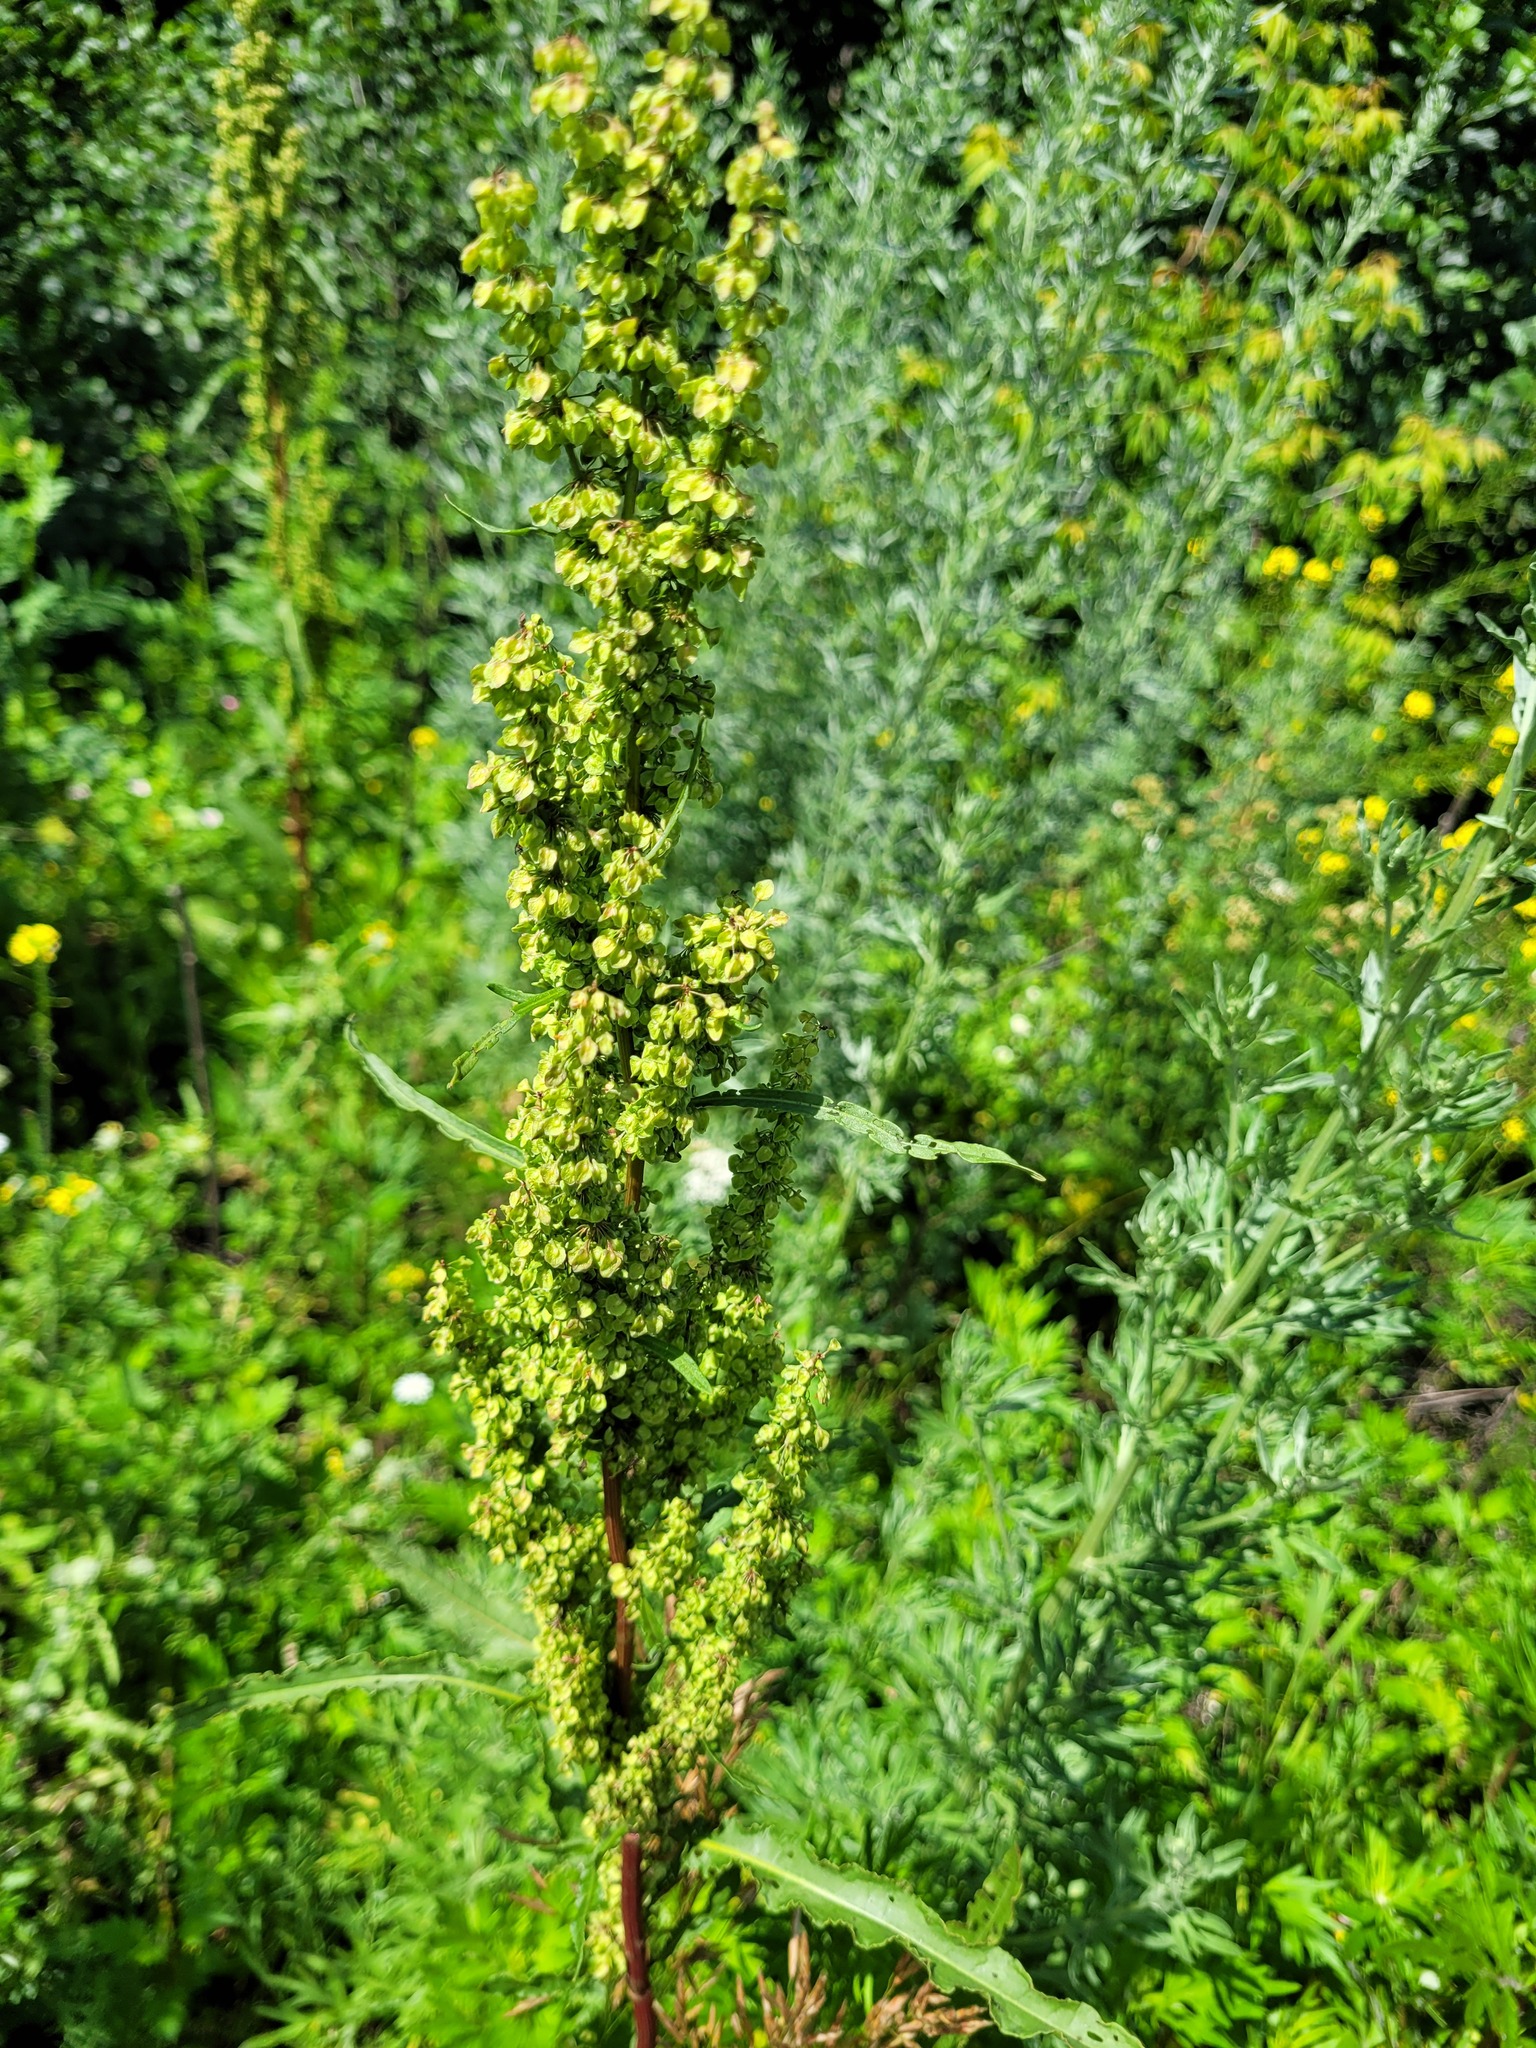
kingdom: Plantae
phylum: Tracheophyta
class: Magnoliopsida
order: Caryophyllales
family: Polygonaceae
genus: Rumex
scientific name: Rumex crispus
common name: Curled dock
